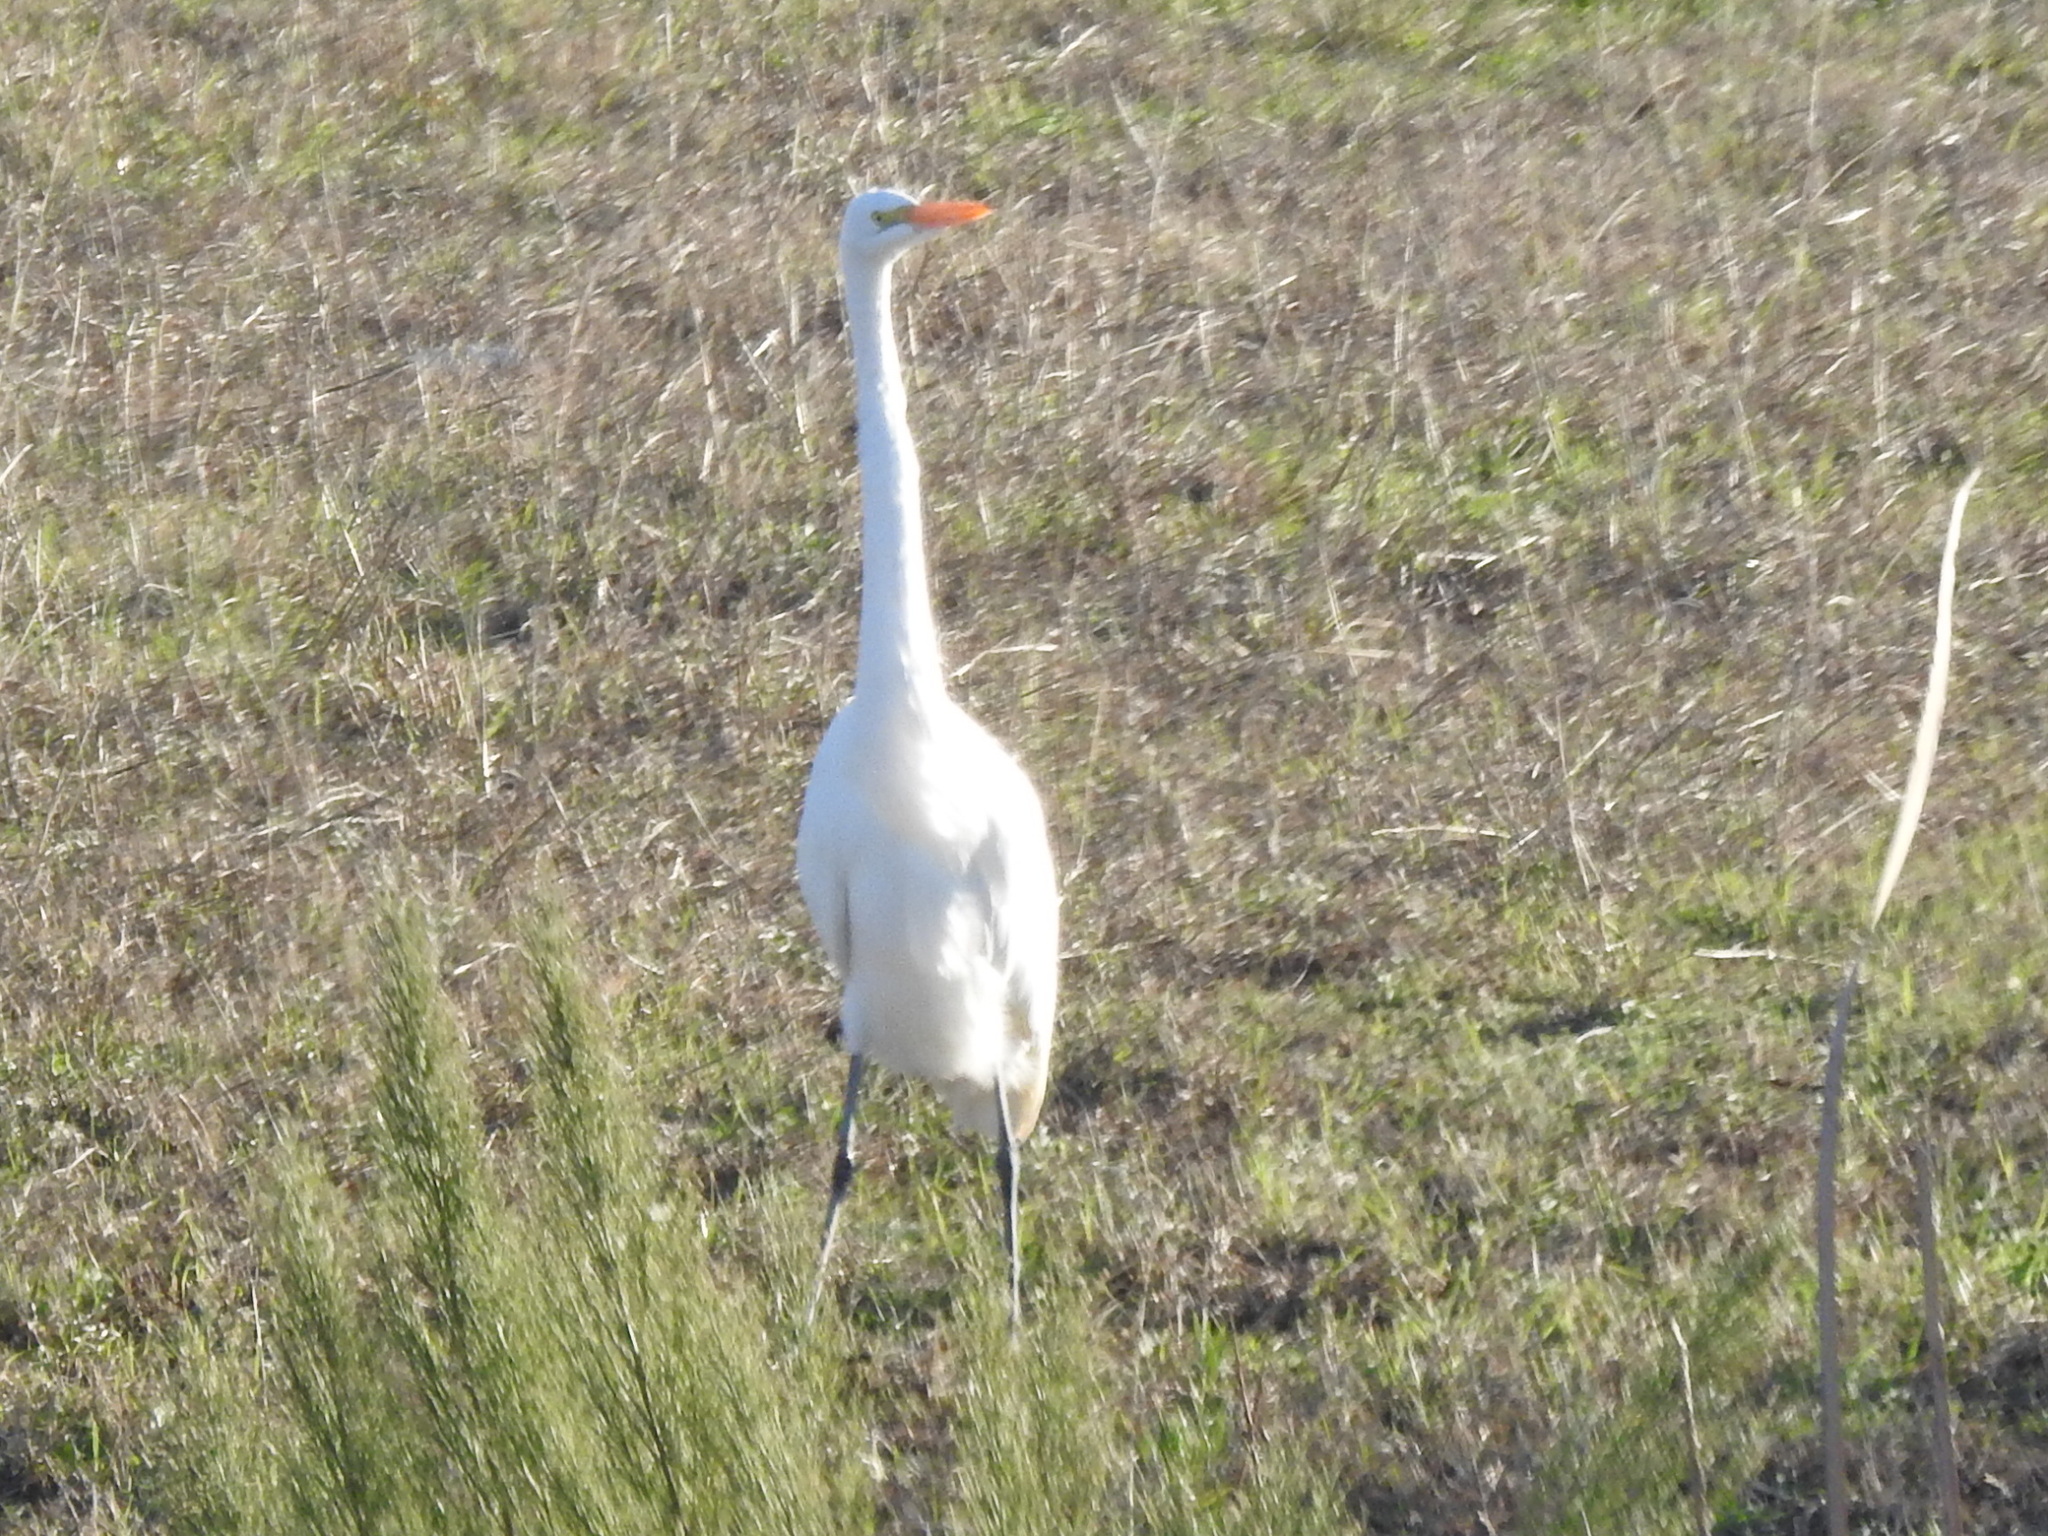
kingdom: Animalia
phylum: Chordata
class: Aves
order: Pelecaniformes
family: Ardeidae
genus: Ardea
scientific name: Ardea alba
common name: Great egret
